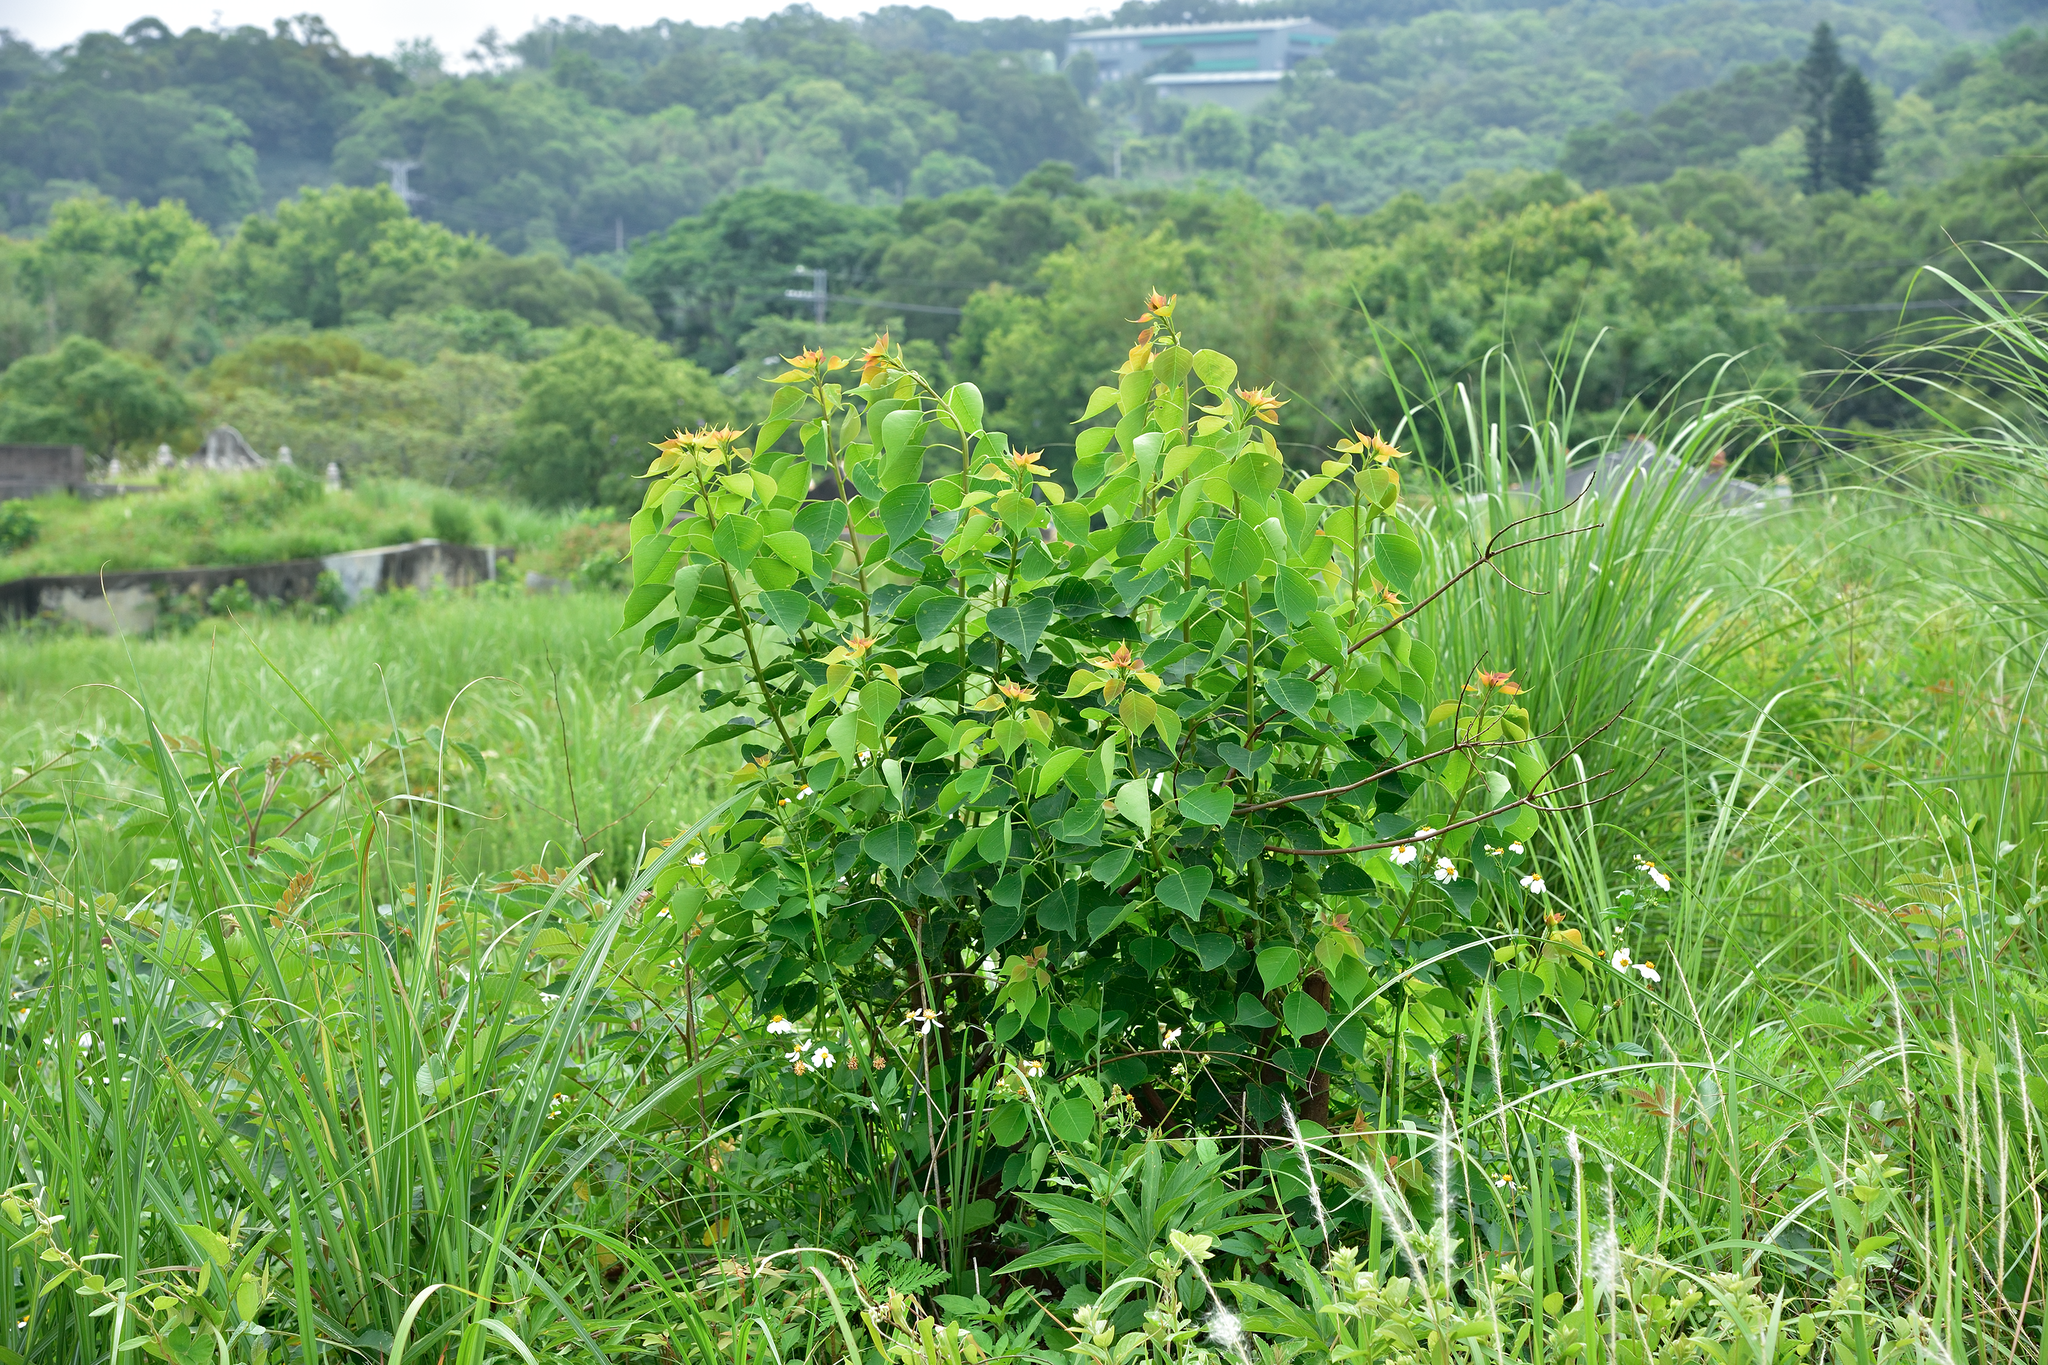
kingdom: Plantae
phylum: Tracheophyta
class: Magnoliopsida
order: Malpighiales
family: Euphorbiaceae
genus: Triadica
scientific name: Triadica sebifera
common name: Chinese tallow
